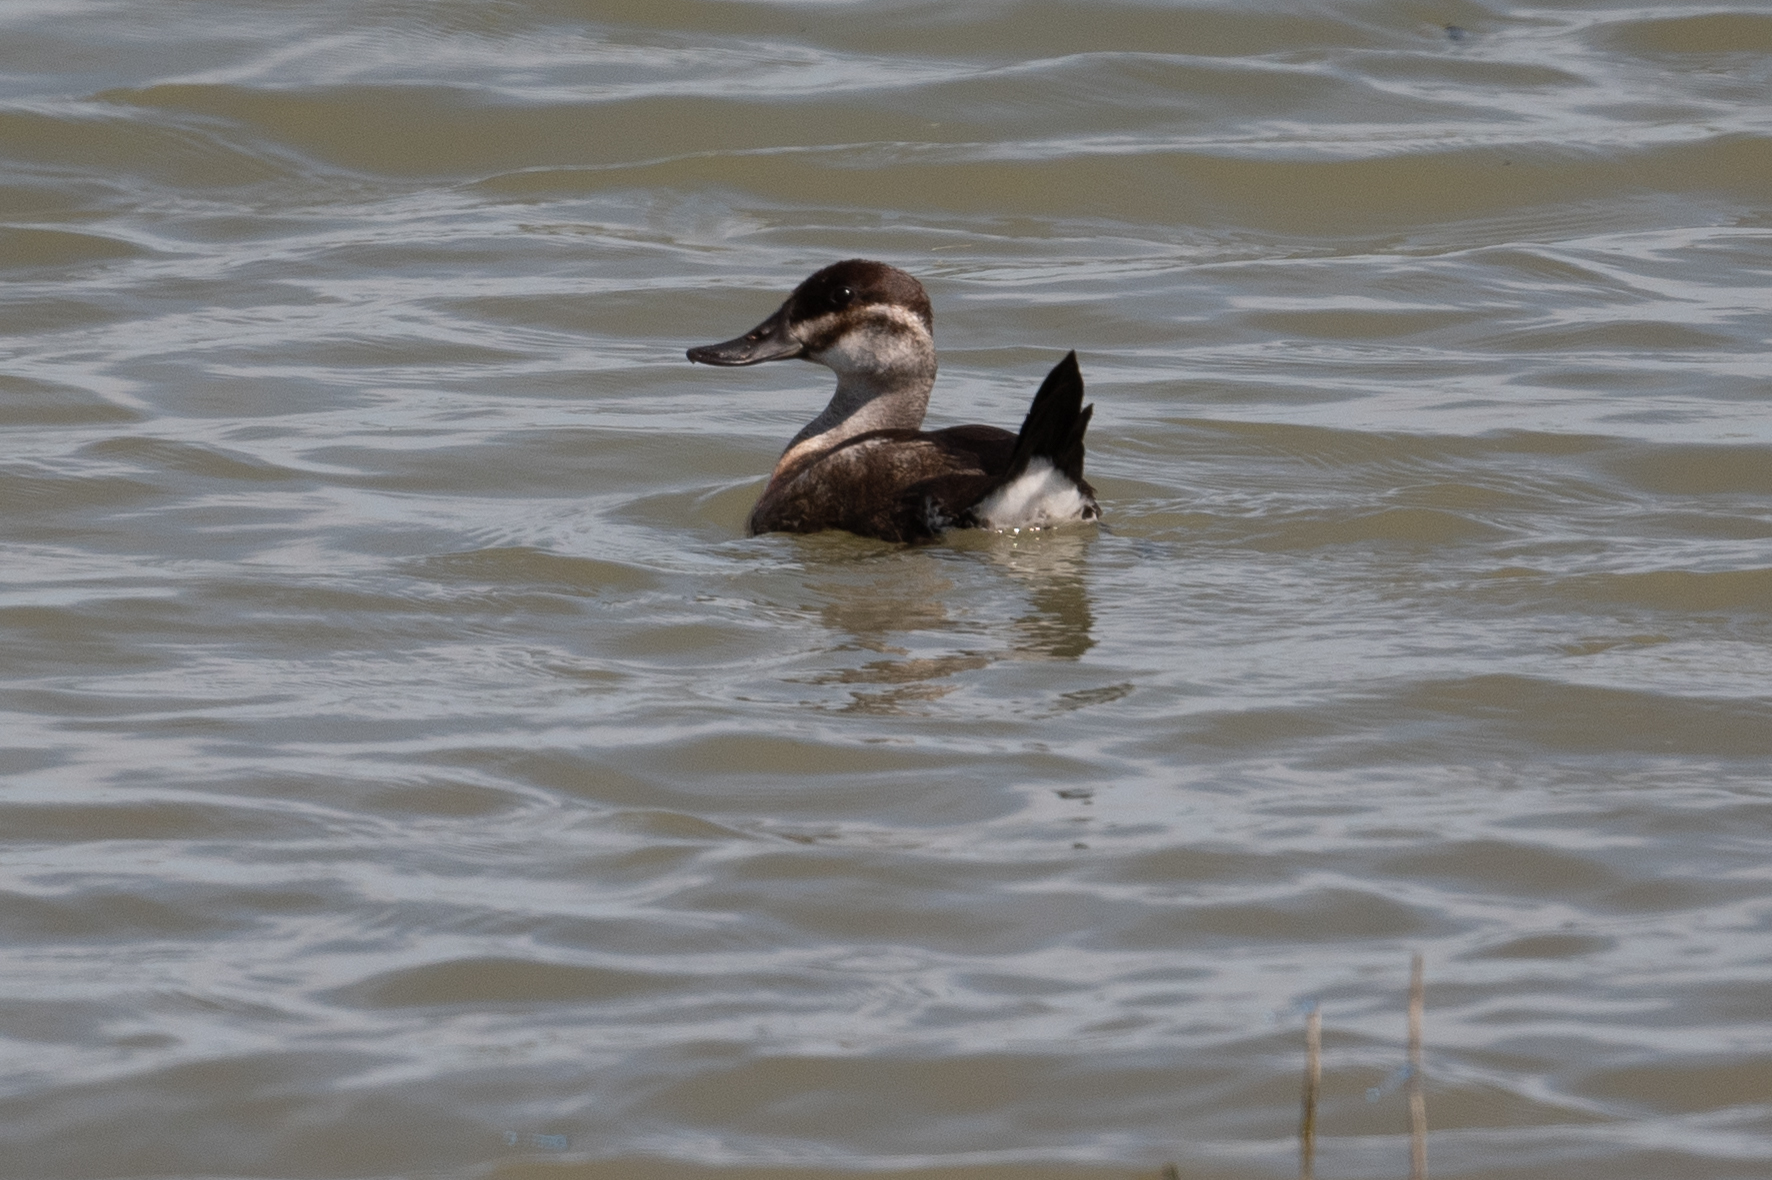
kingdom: Animalia
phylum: Chordata
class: Aves
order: Anseriformes
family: Anatidae
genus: Oxyura
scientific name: Oxyura jamaicensis
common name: Ruddy duck
